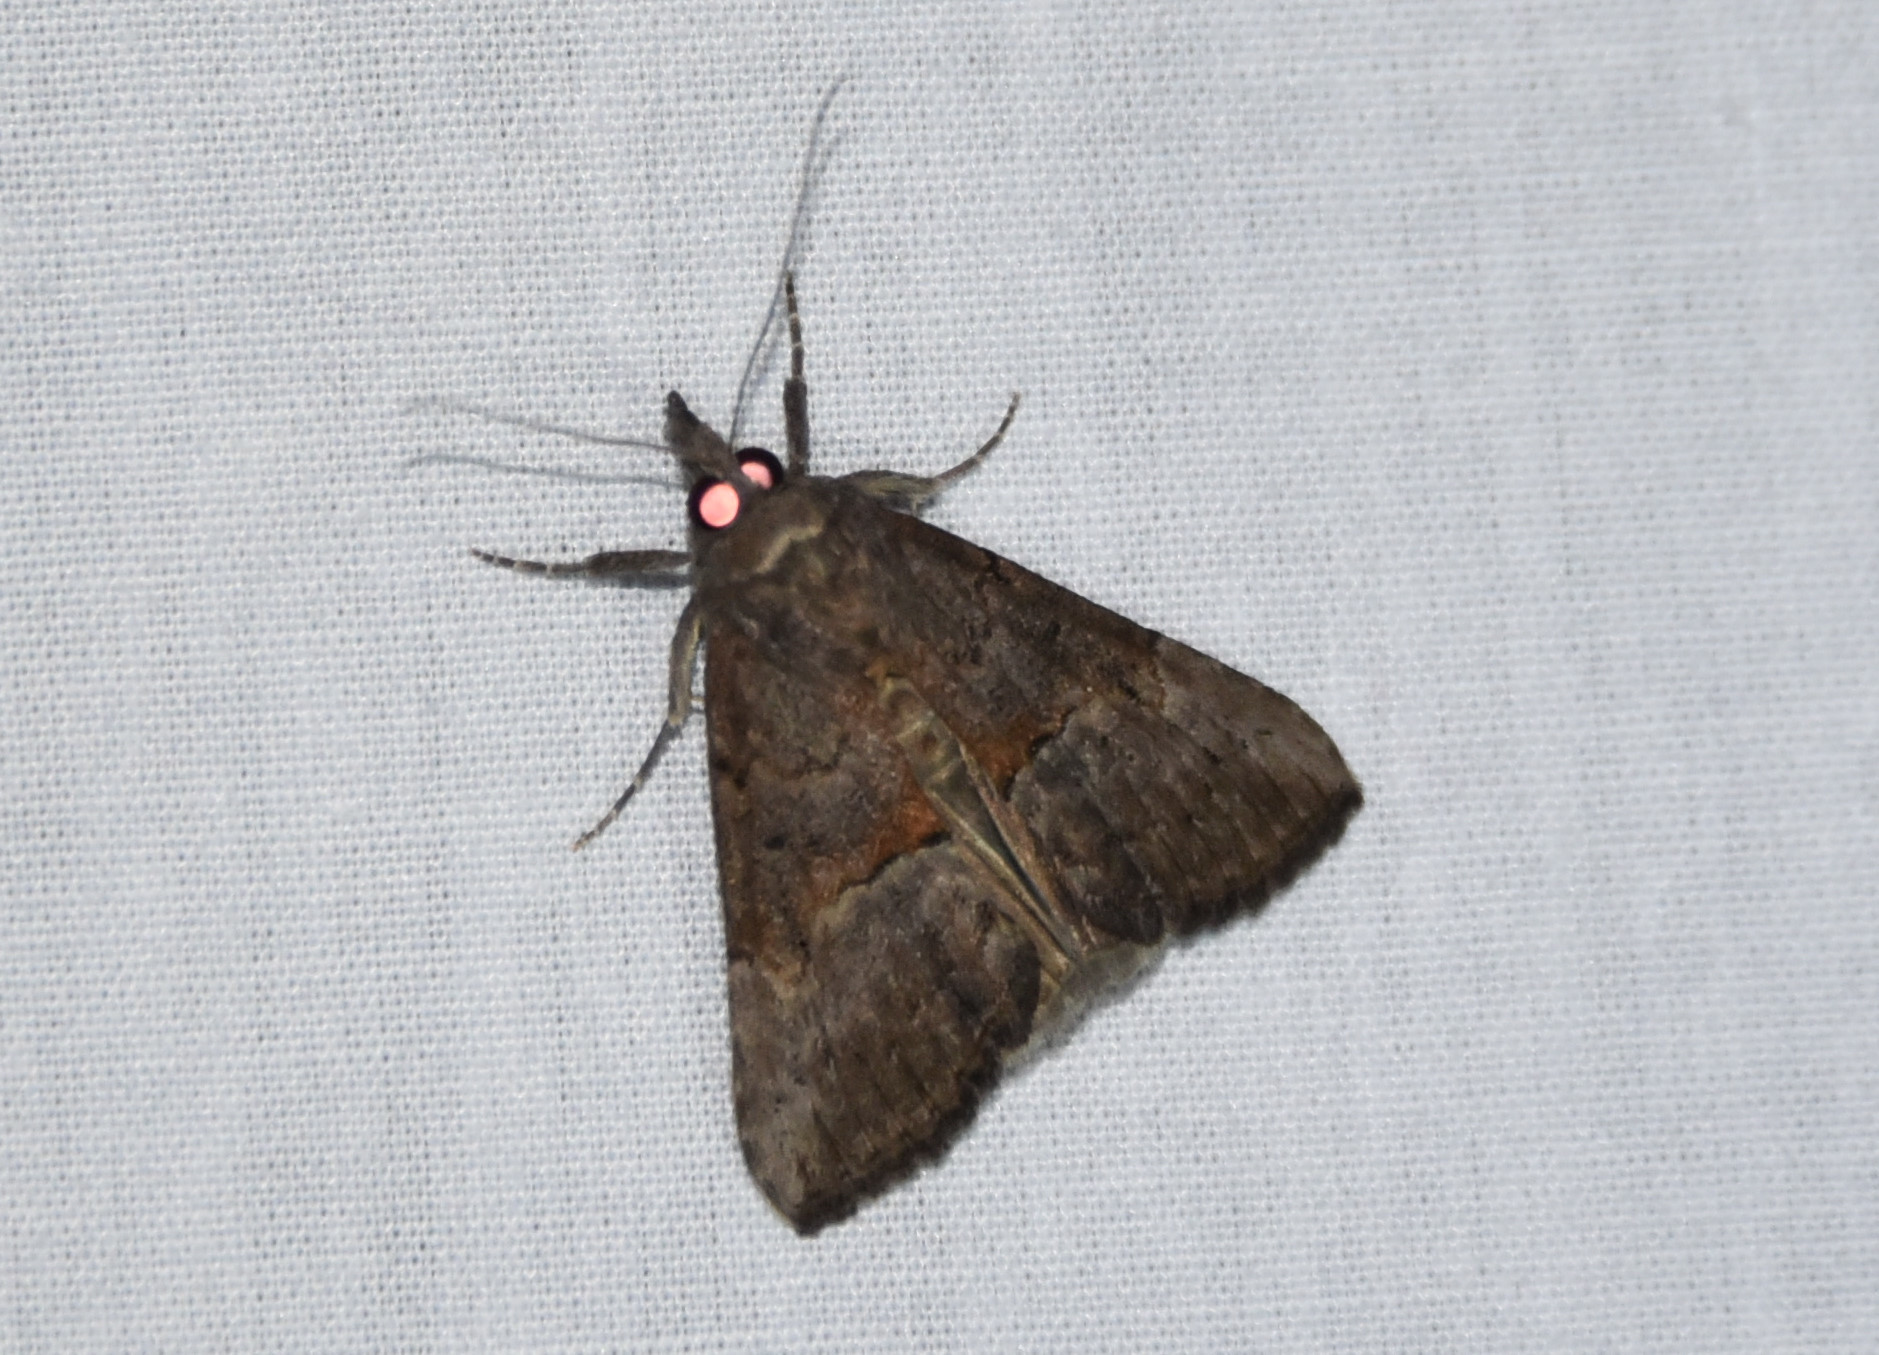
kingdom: Animalia
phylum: Arthropoda
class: Insecta
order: Lepidoptera
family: Erebidae
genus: Hypena
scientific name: Hypena scabra
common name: Green cloverworm
